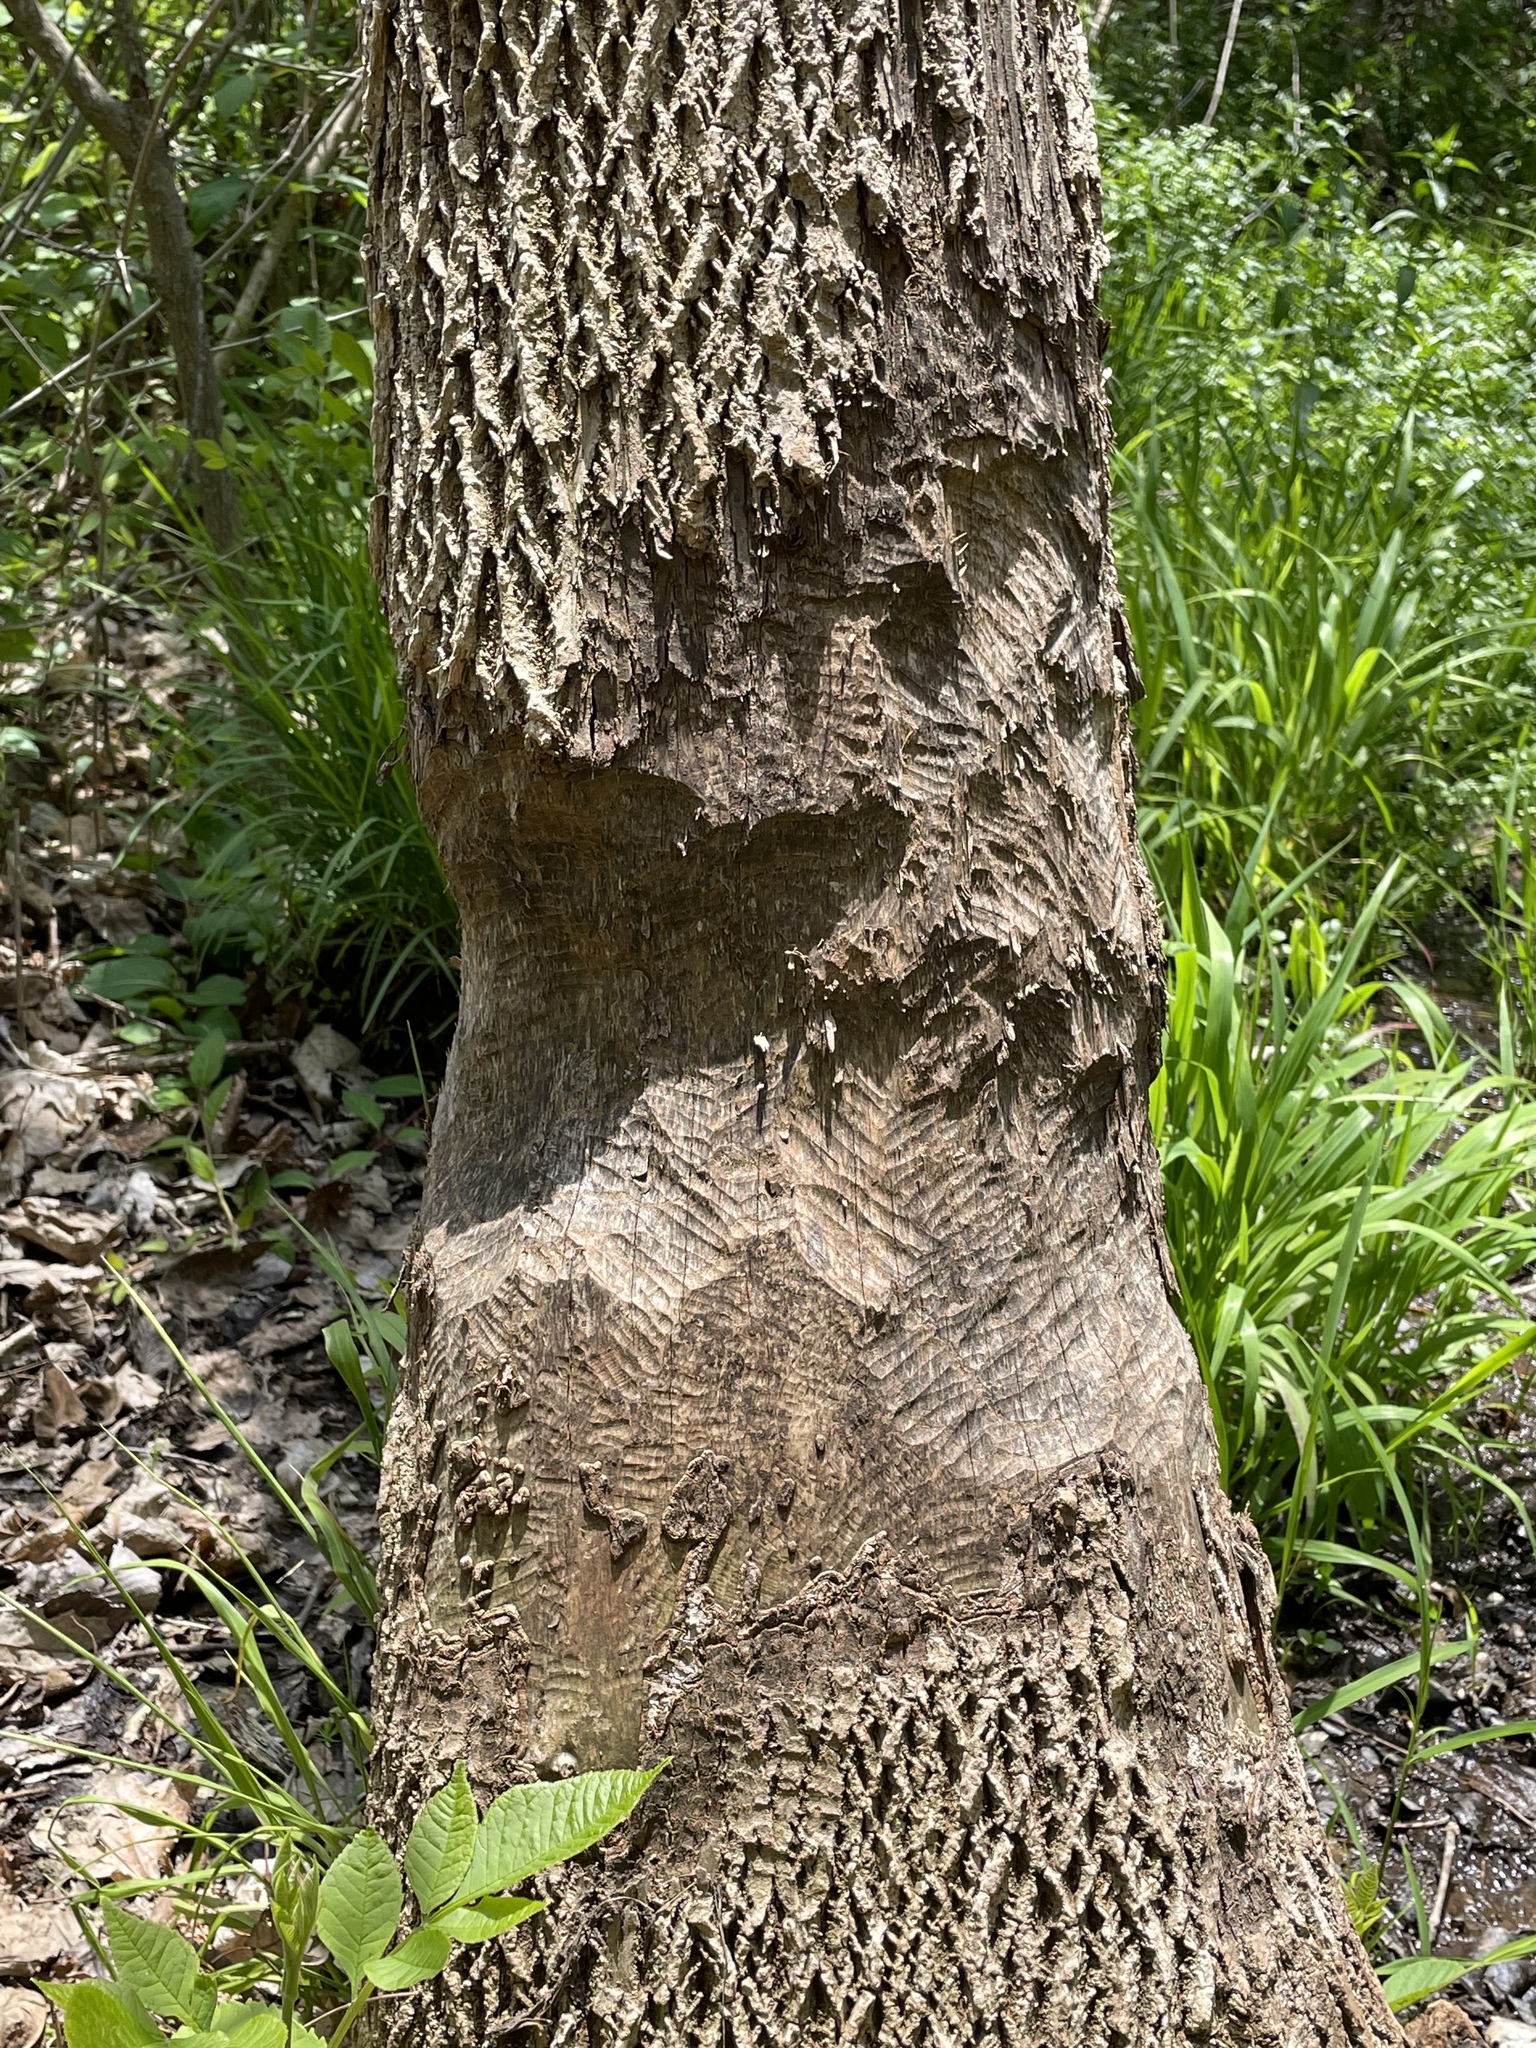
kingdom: Animalia
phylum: Chordata
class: Mammalia
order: Rodentia
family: Castoridae
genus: Castor
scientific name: Castor canadensis
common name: American beaver
